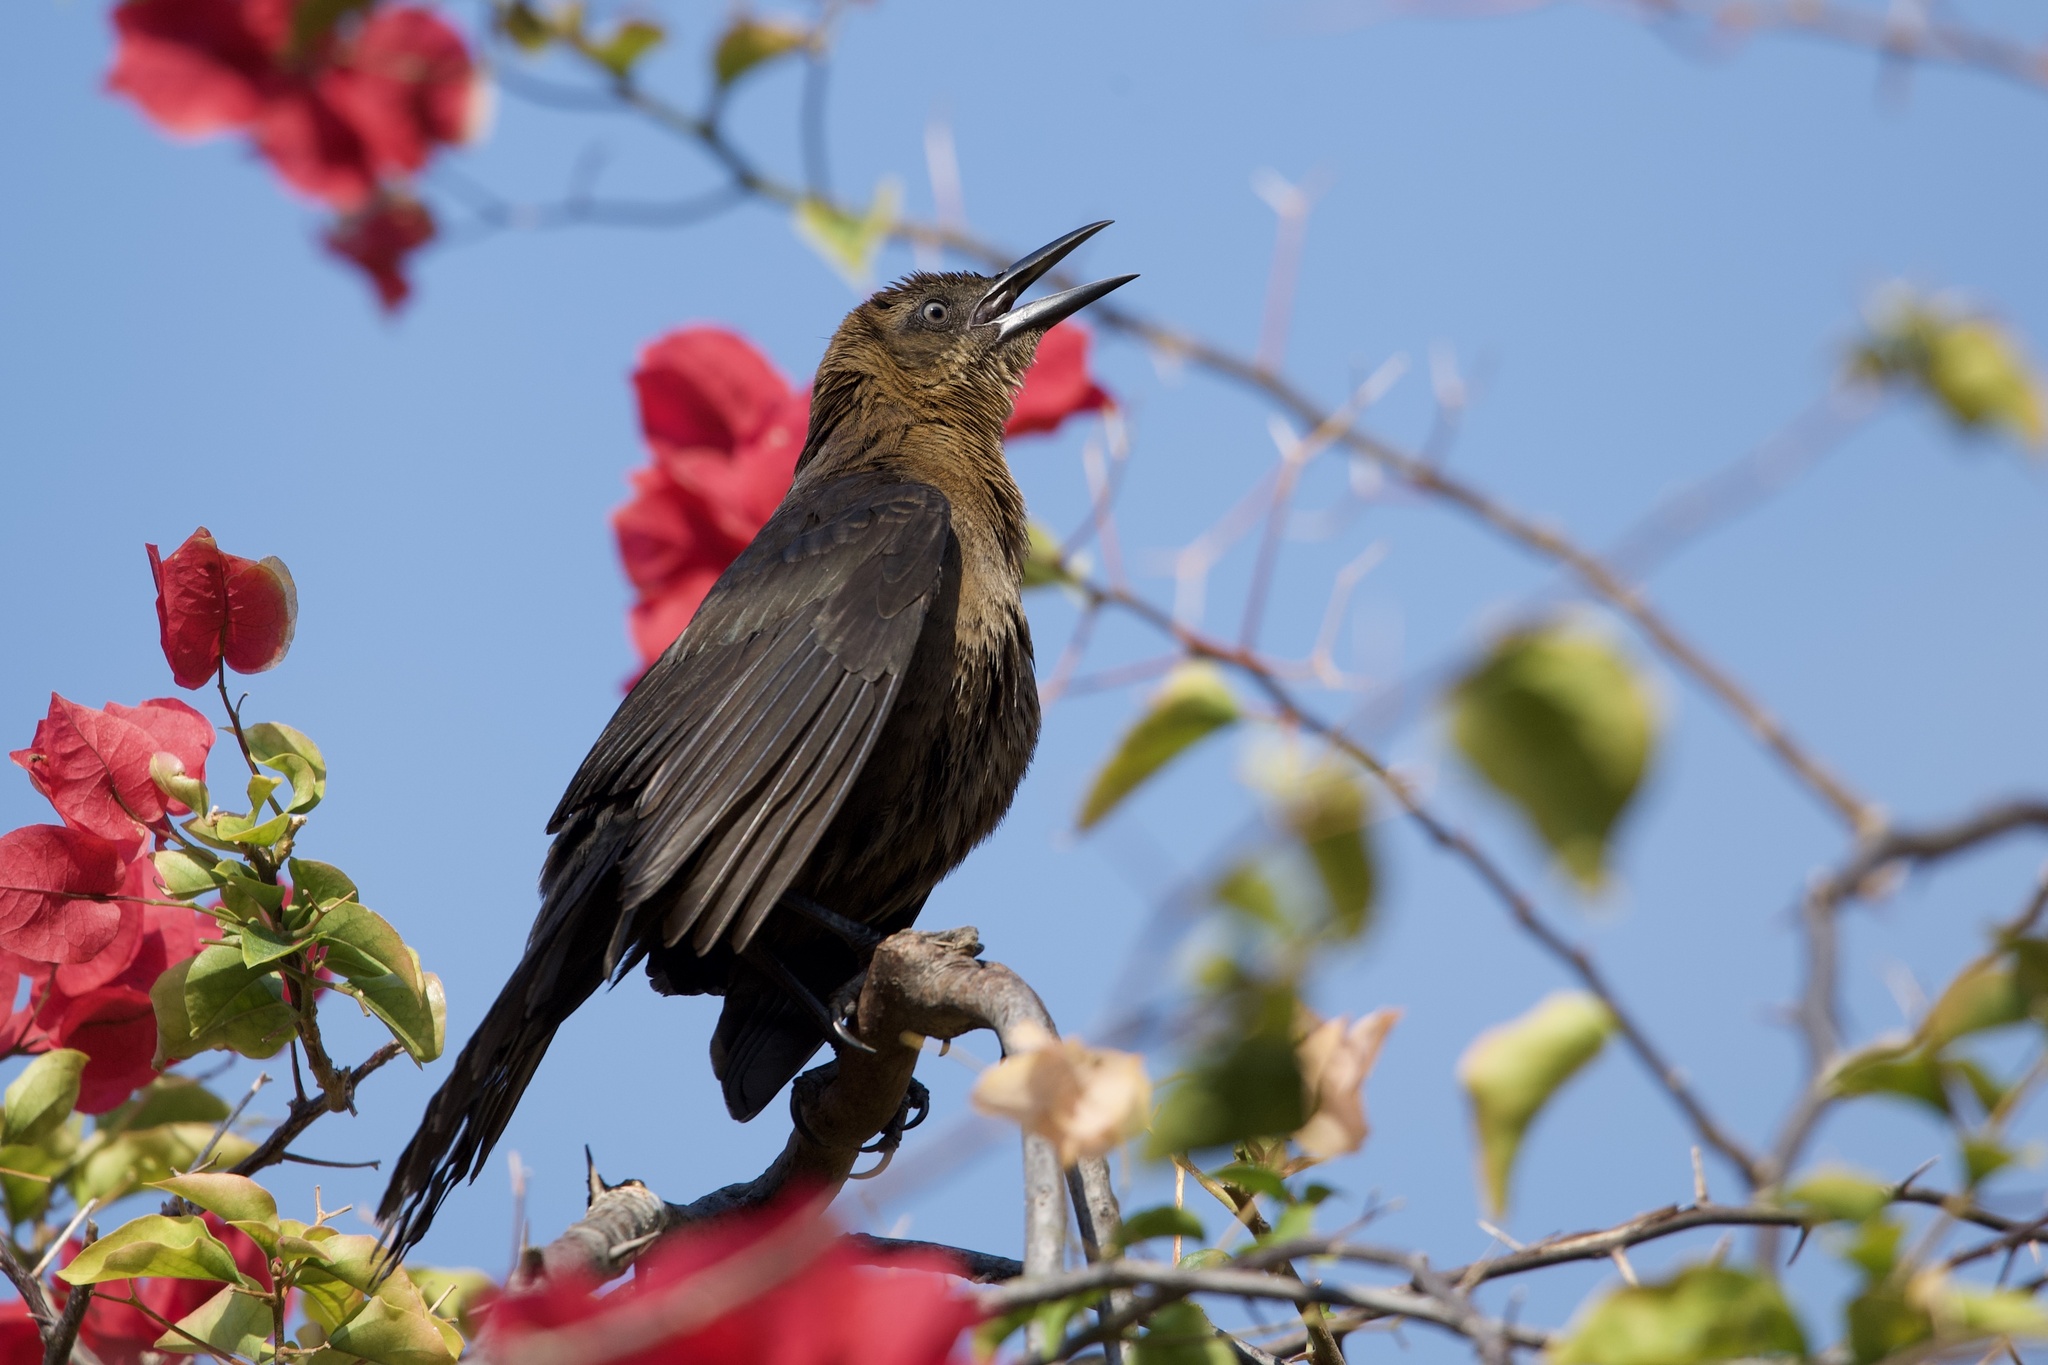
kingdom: Animalia
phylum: Chordata
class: Aves
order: Passeriformes
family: Icteridae
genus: Quiscalus
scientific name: Quiscalus mexicanus
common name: Great-tailed grackle
